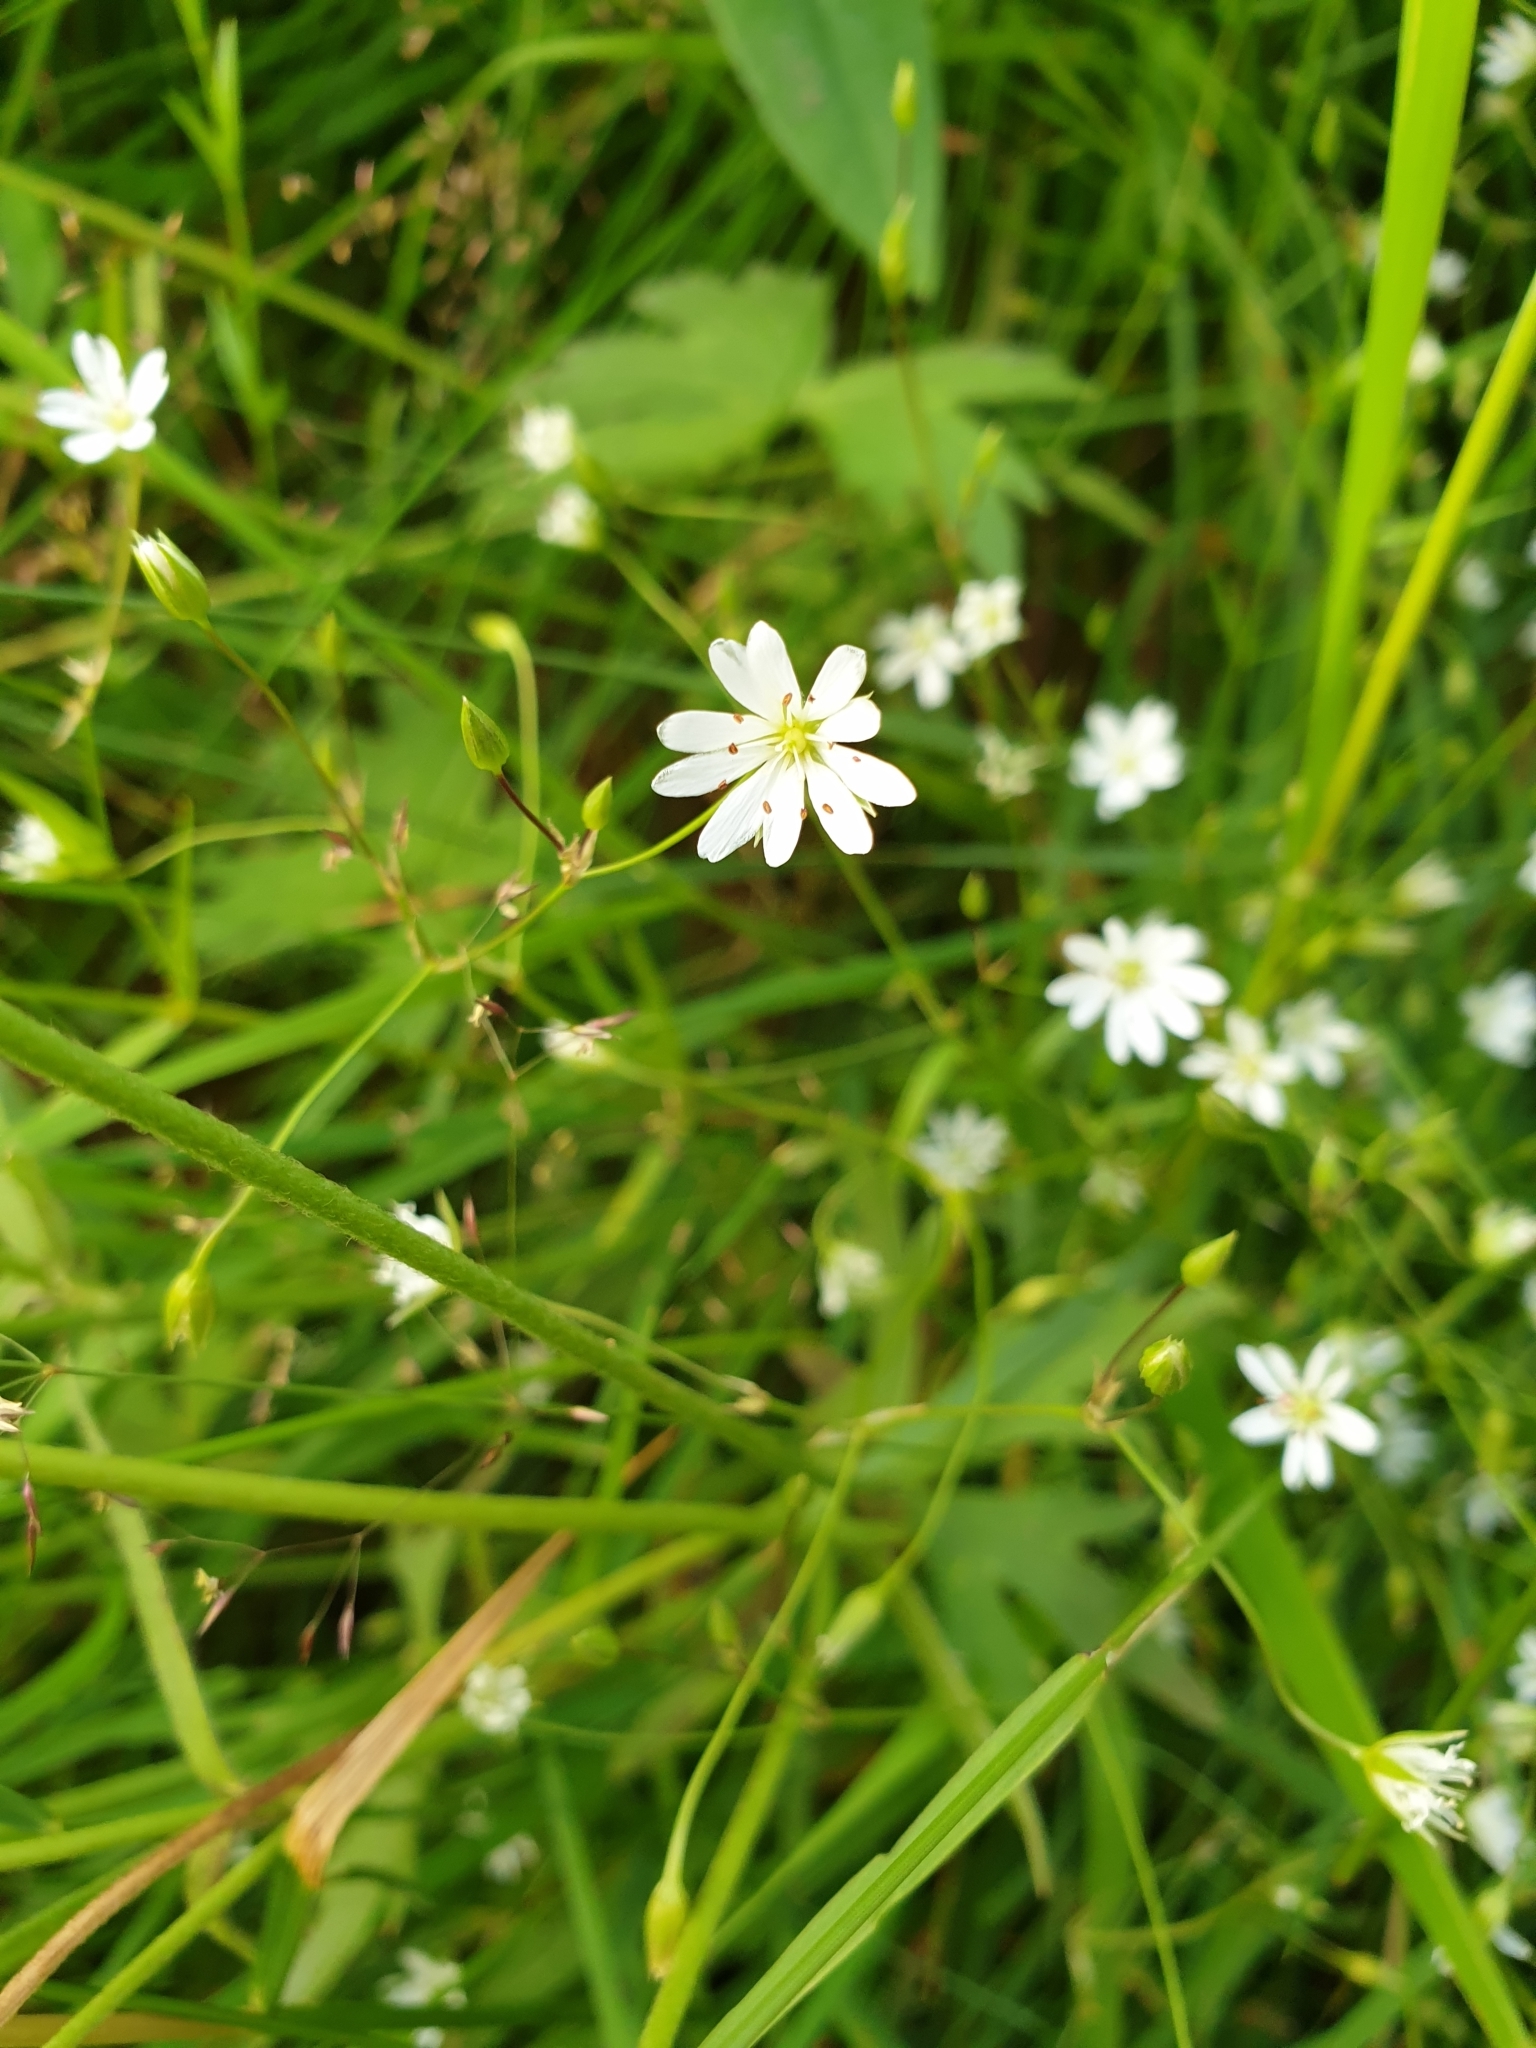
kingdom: Plantae
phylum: Tracheophyta
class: Magnoliopsida
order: Caryophyllales
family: Caryophyllaceae
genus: Stellaria
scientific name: Stellaria graminea
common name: Grass-like starwort
